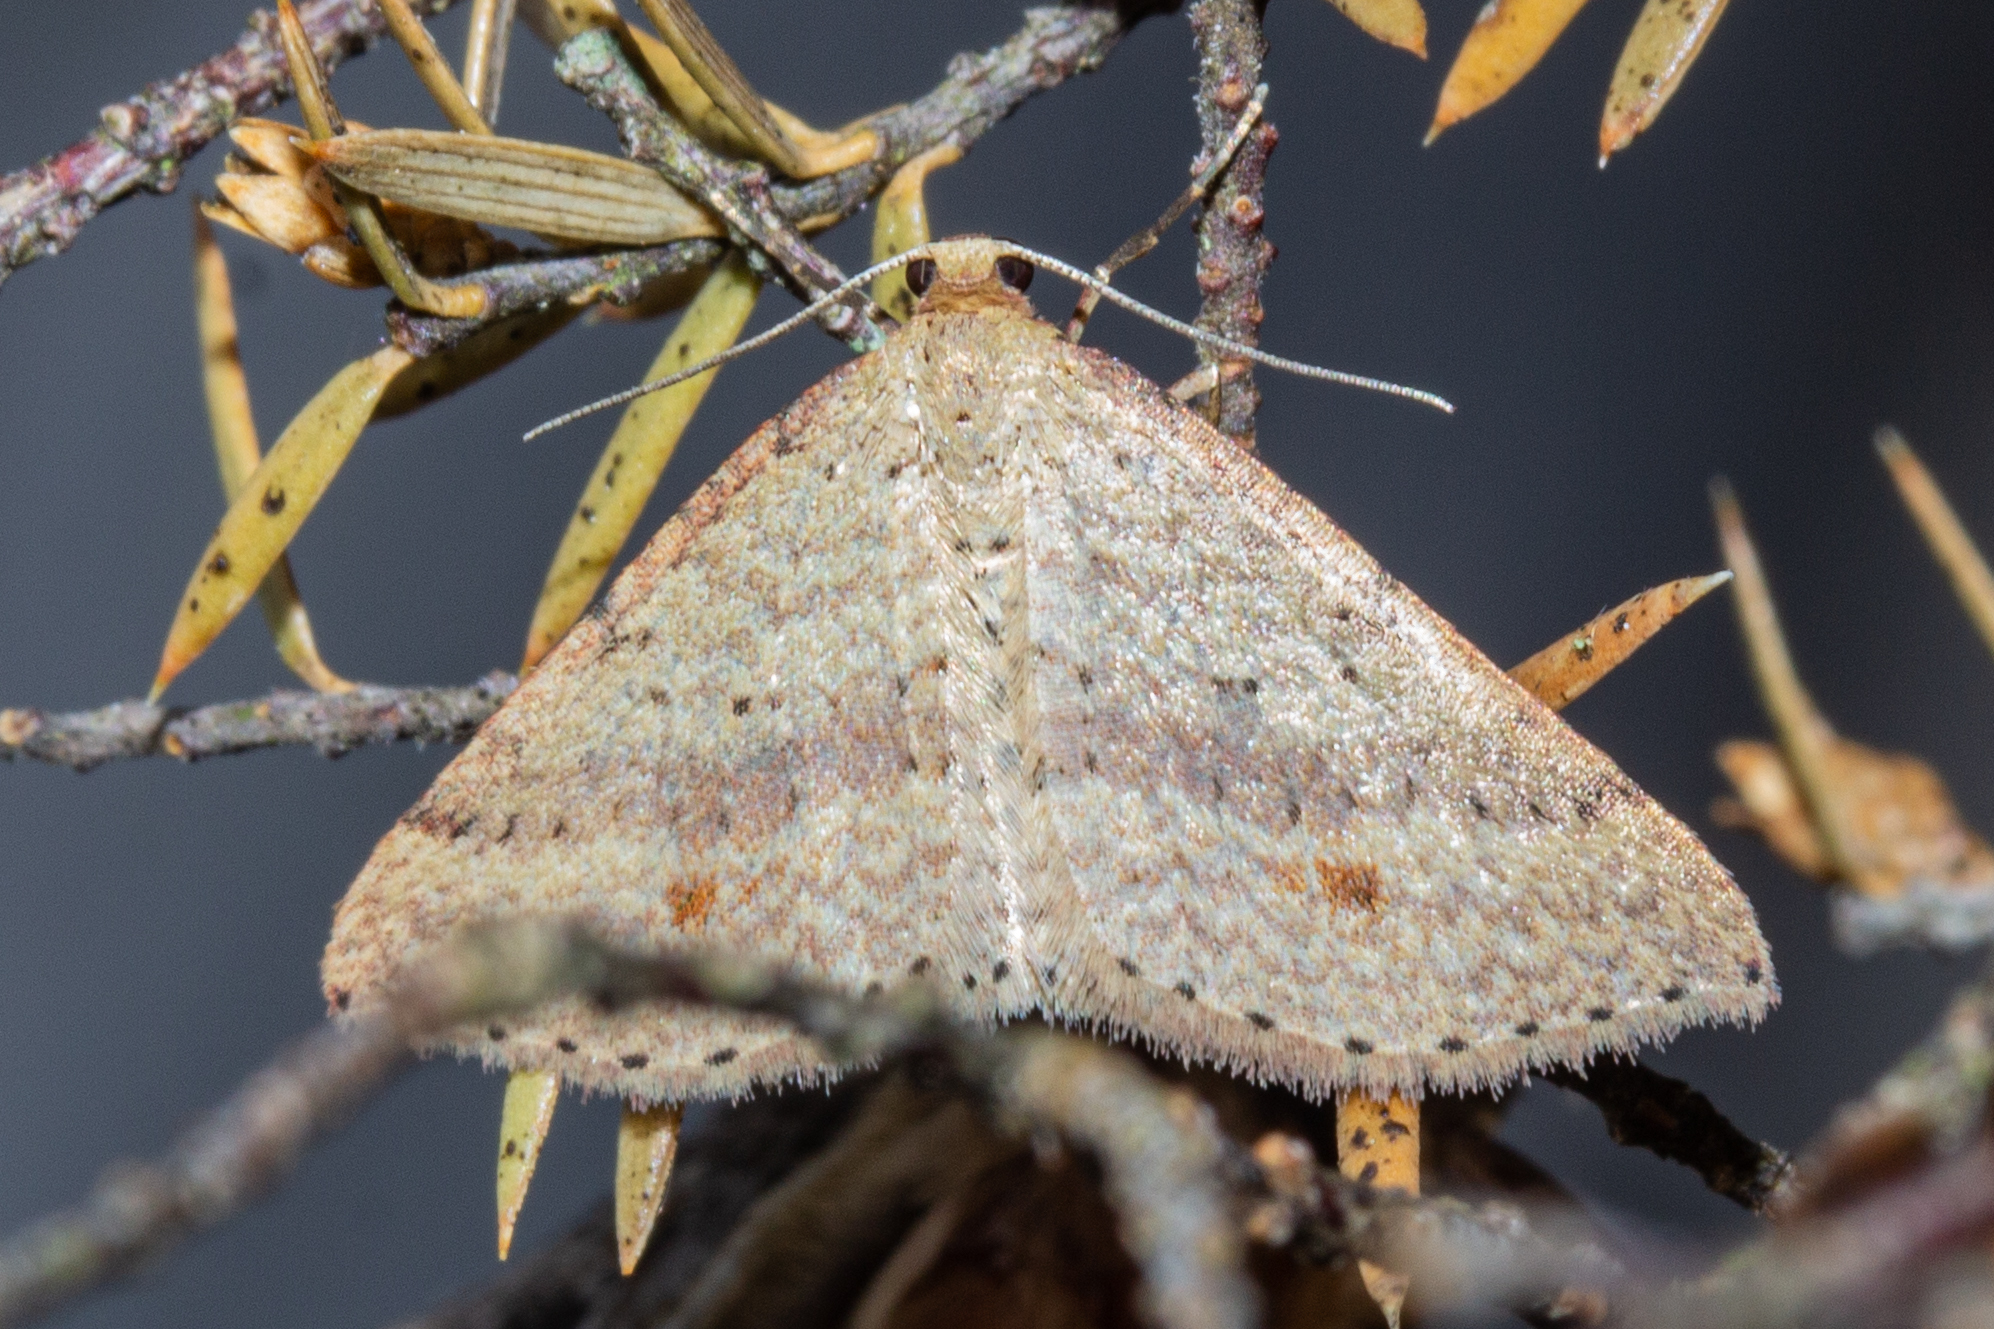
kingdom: Animalia
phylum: Arthropoda
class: Insecta
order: Lepidoptera
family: Geometridae
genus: Epicyme
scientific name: Epicyme rubropunctaria
